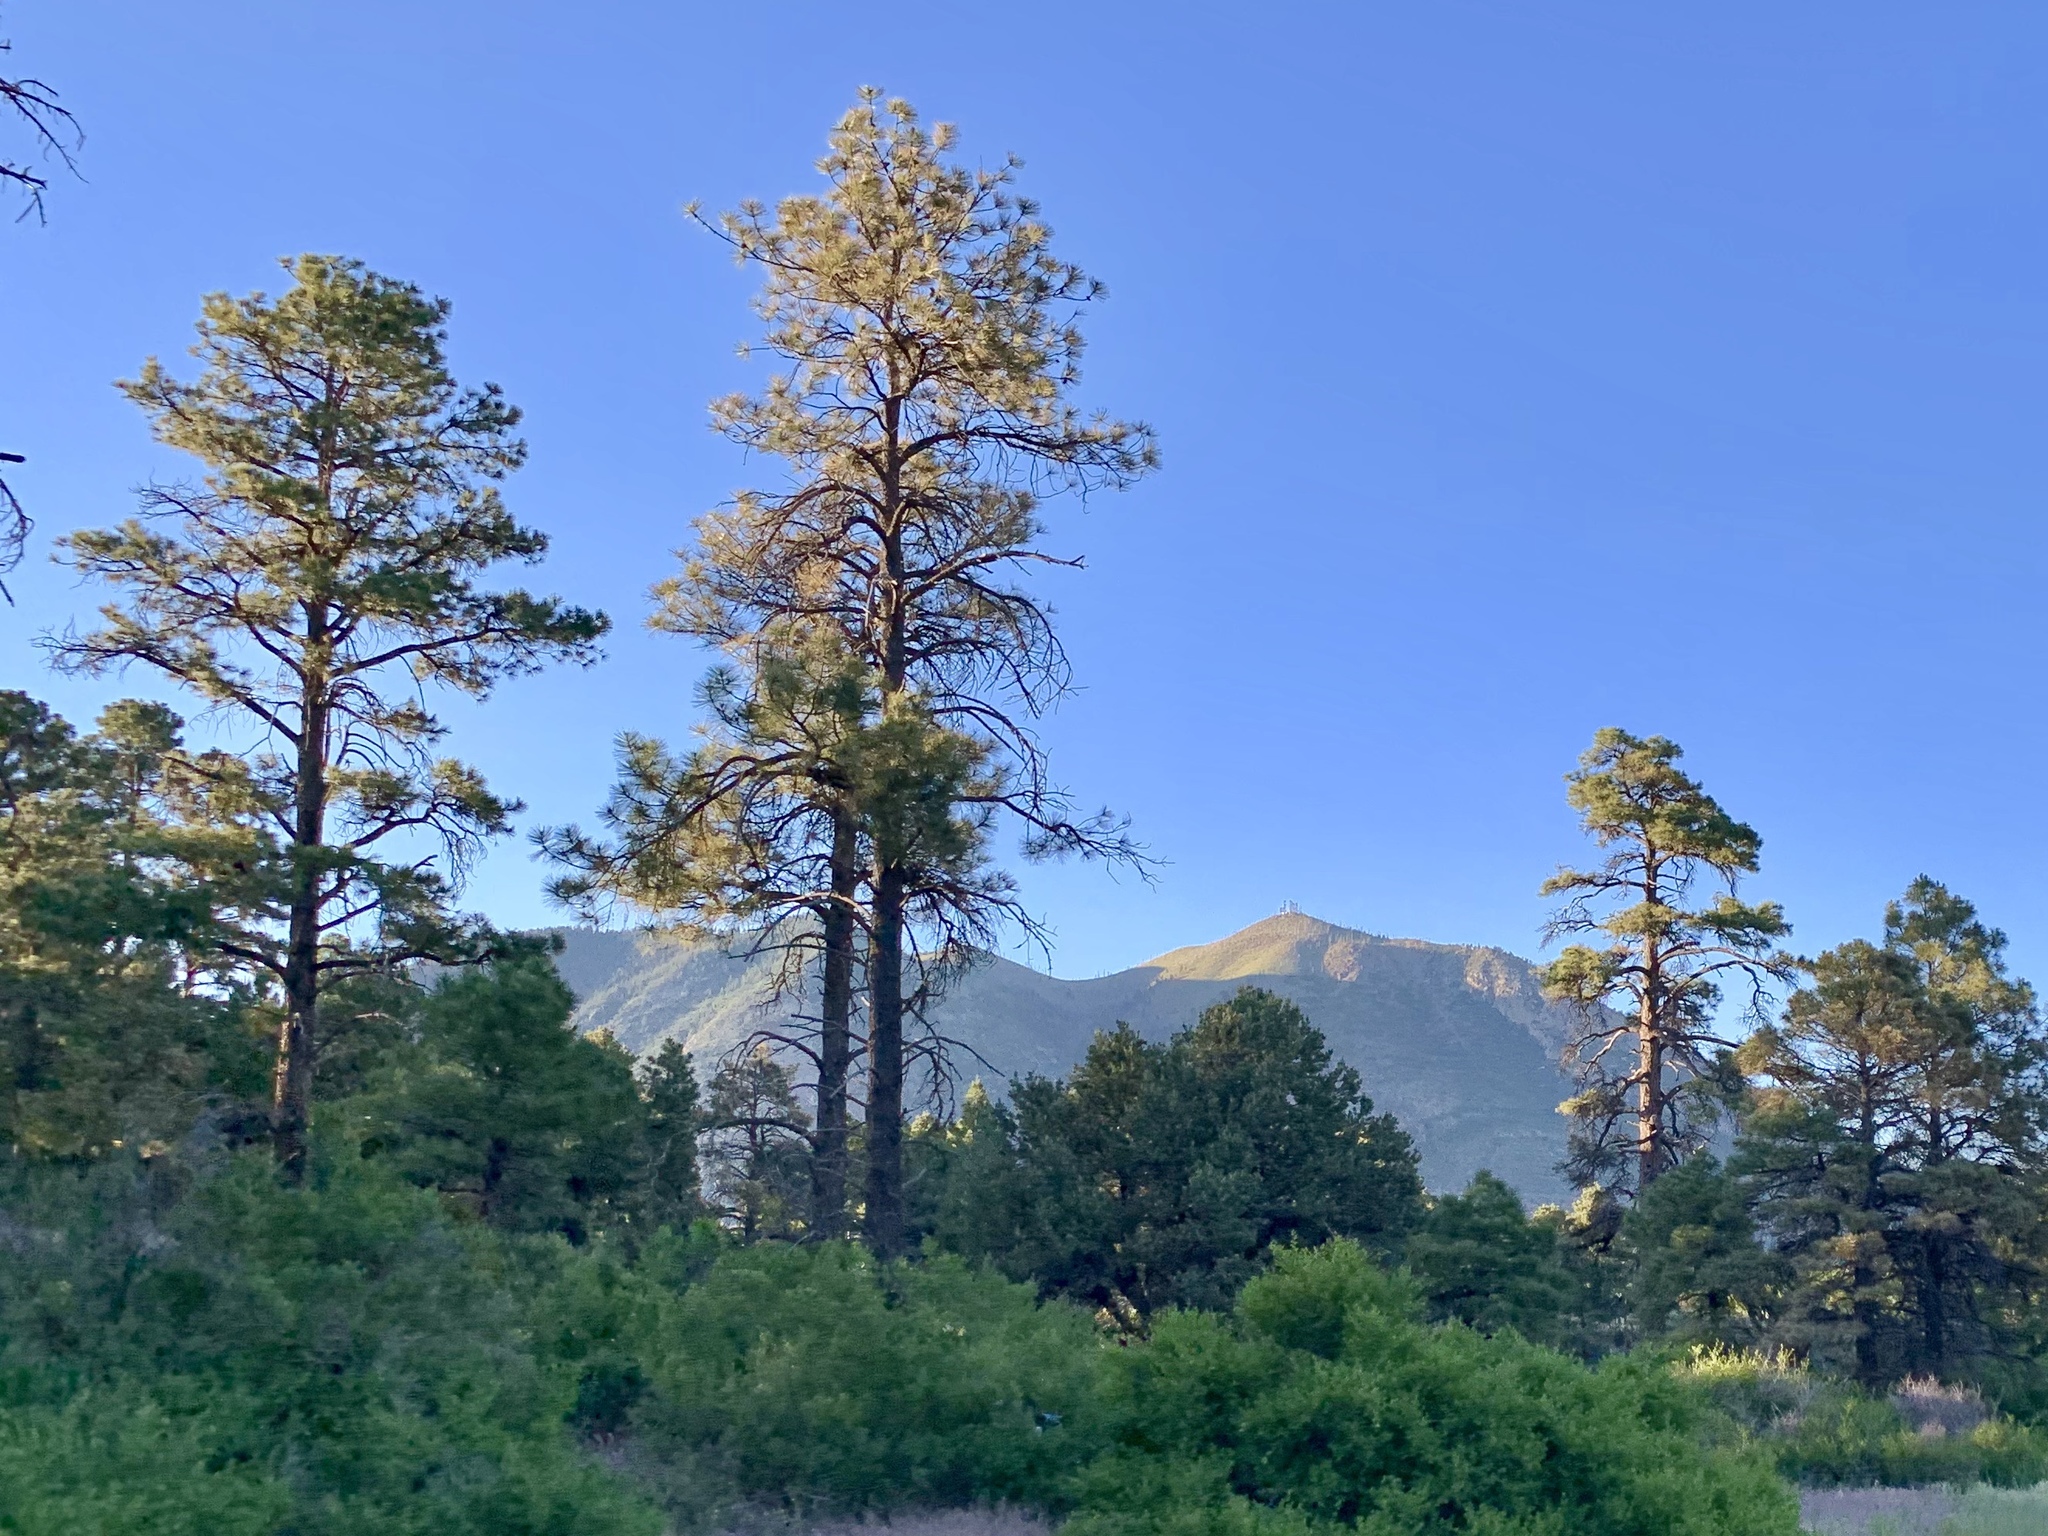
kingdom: Plantae
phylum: Tracheophyta
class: Pinopsida
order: Pinales
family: Pinaceae
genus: Pinus
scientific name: Pinus ponderosa
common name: Western yellow-pine
